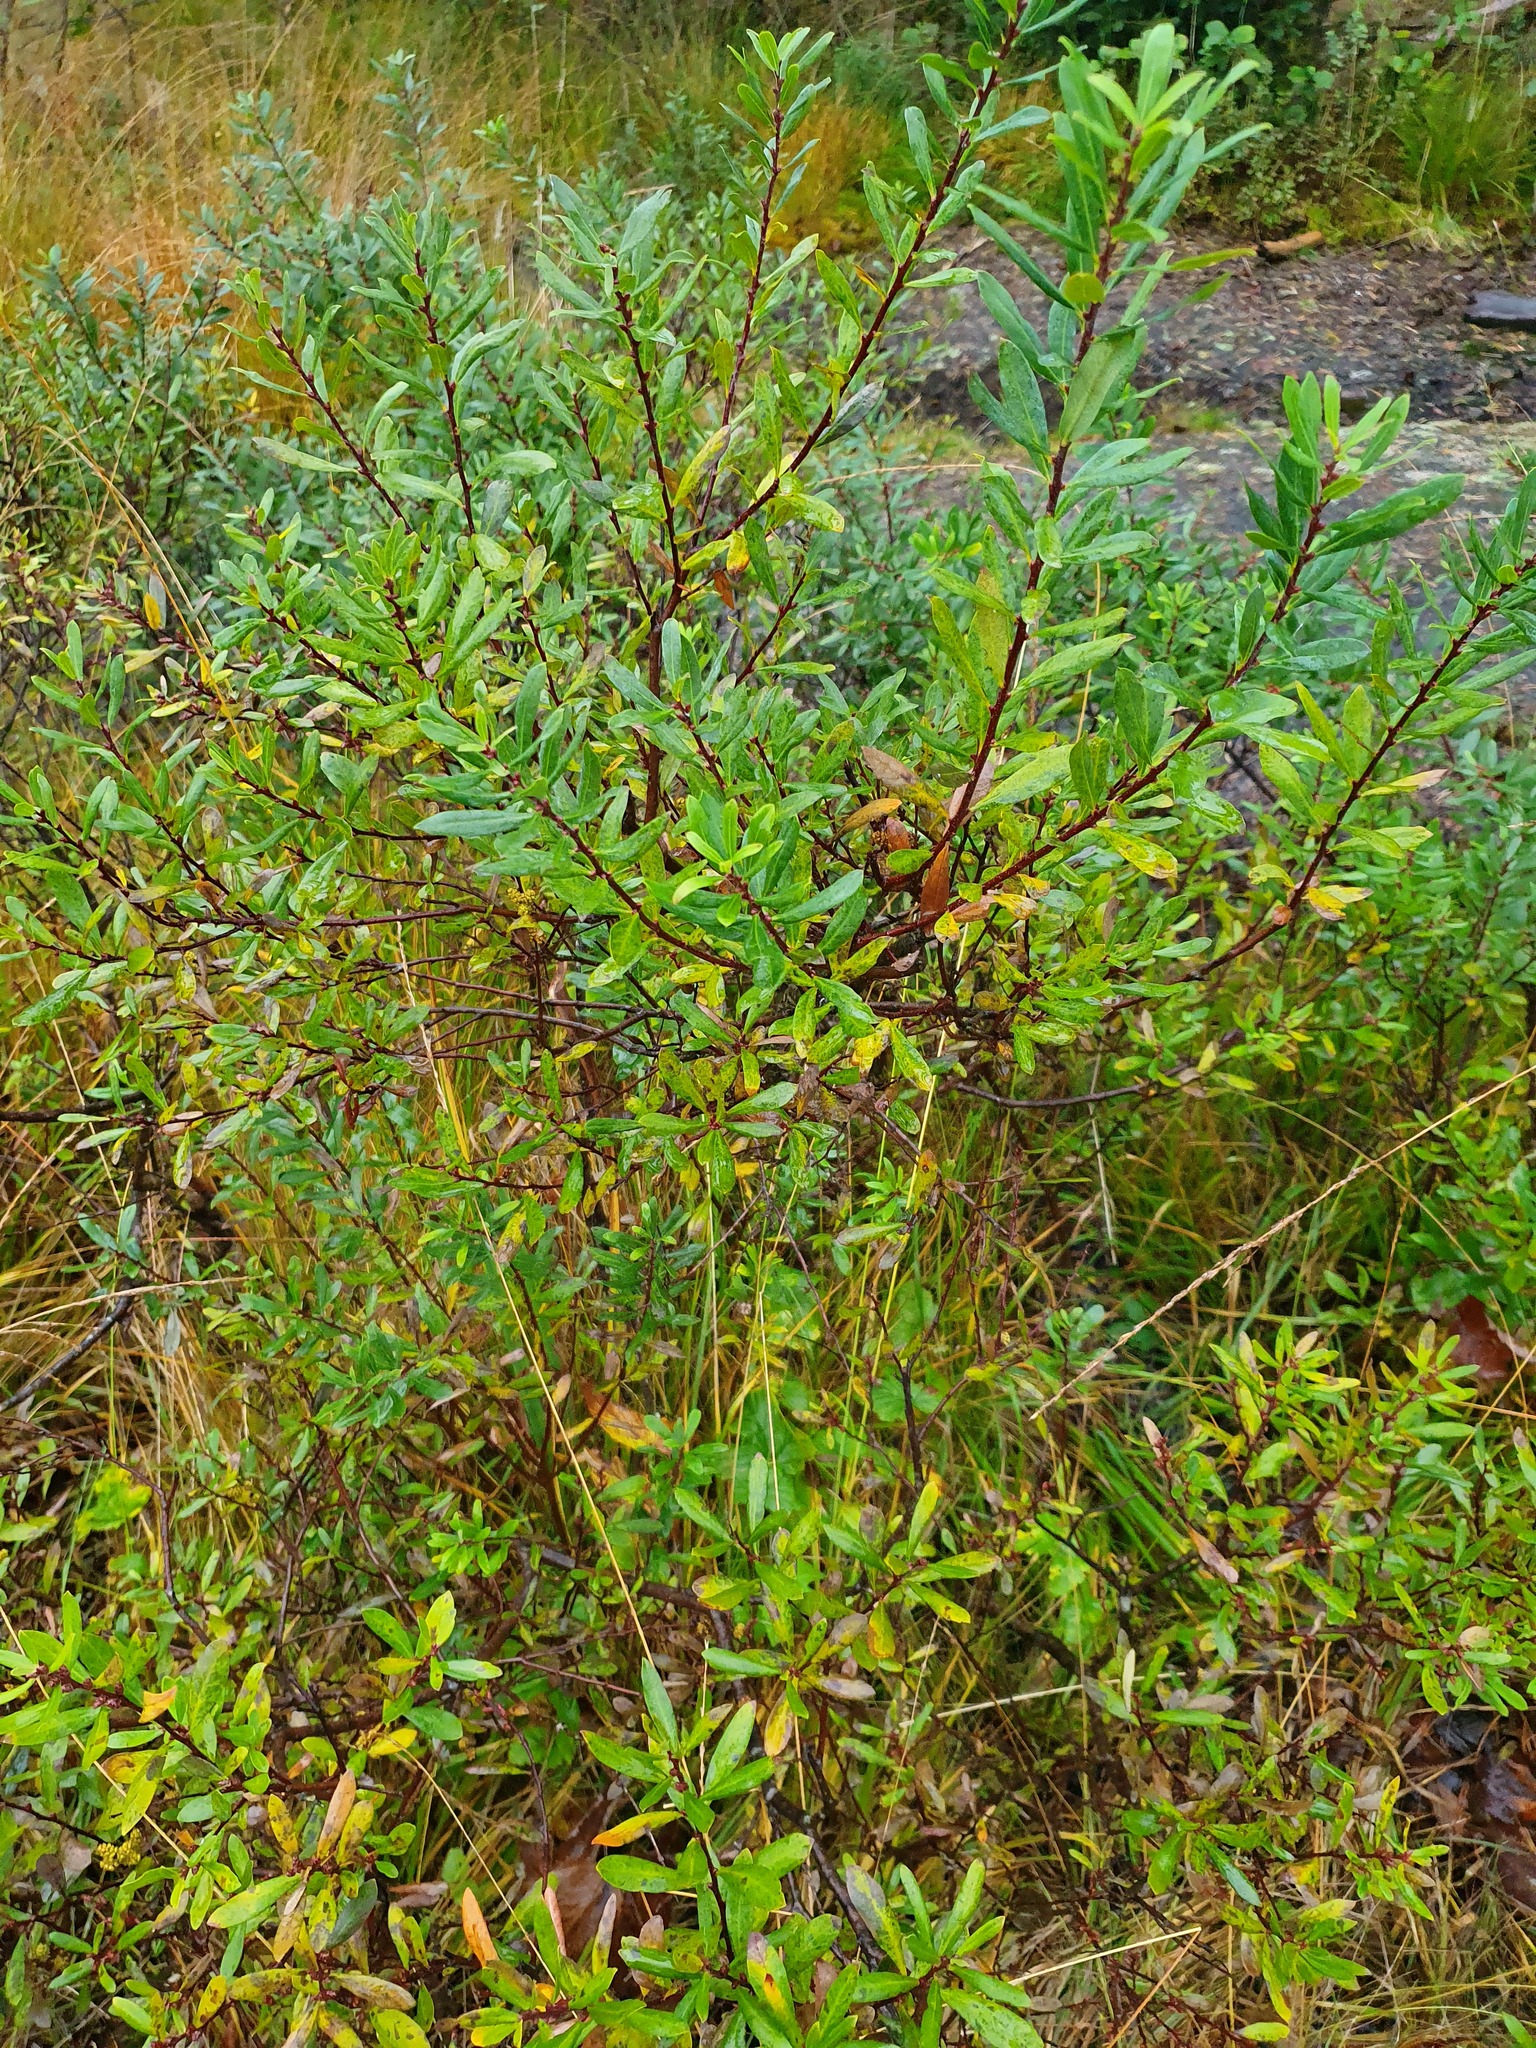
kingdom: Plantae
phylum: Tracheophyta
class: Magnoliopsida
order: Fagales
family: Myricaceae
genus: Myrica
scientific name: Myrica gale
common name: Sweet gale
